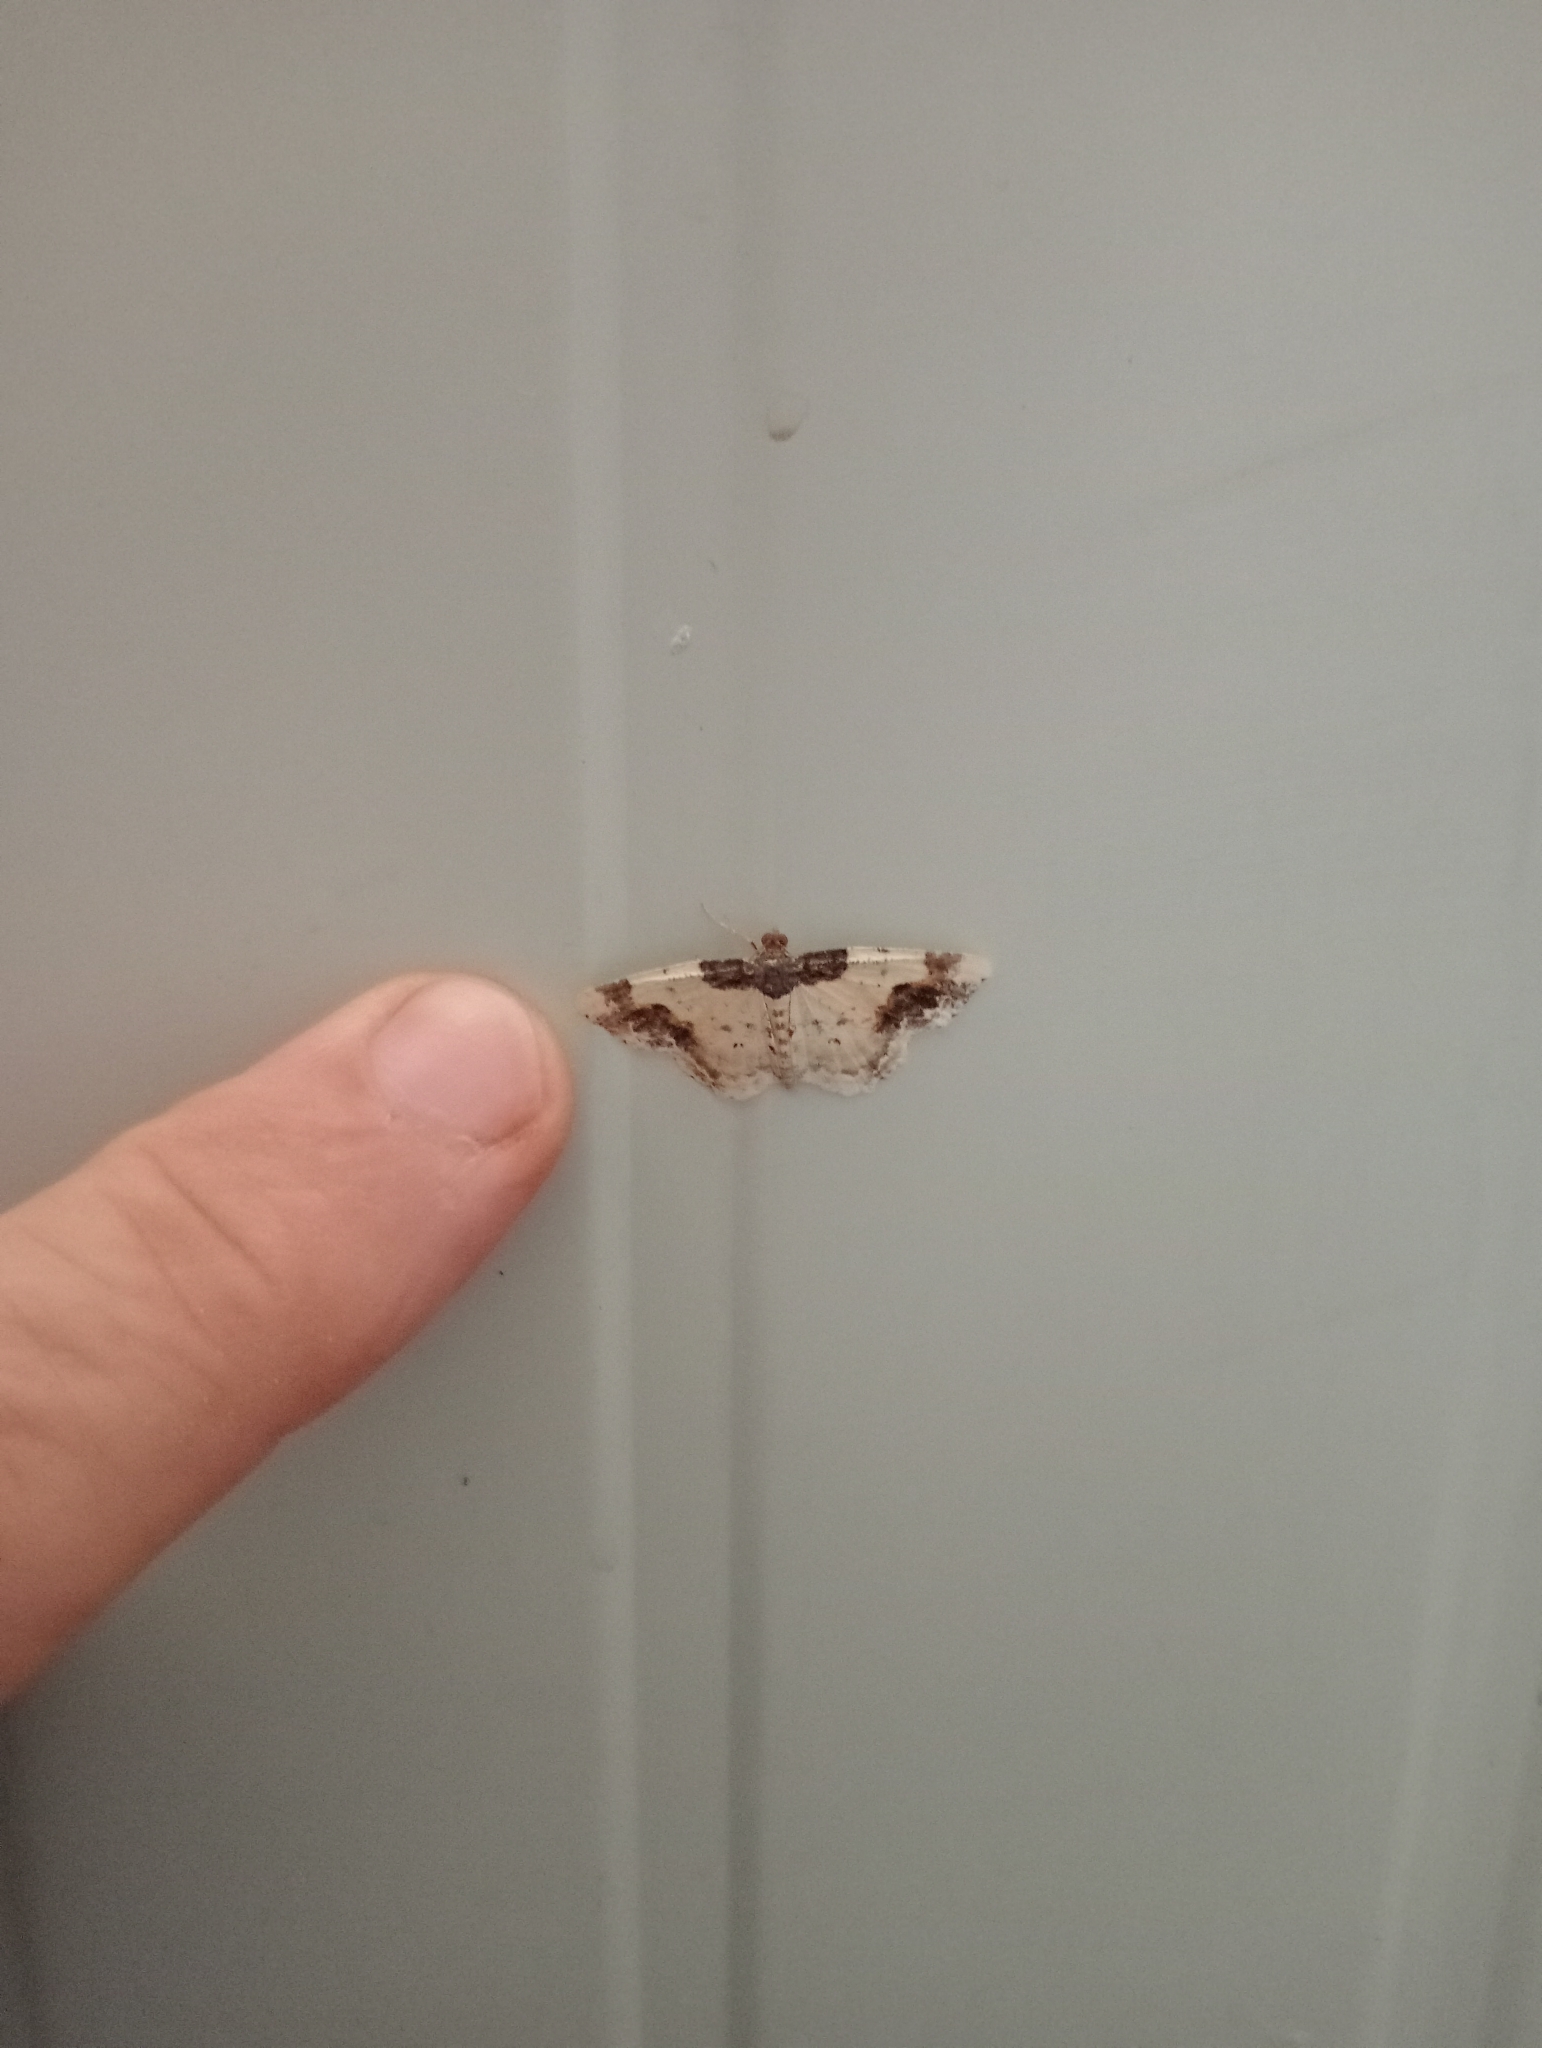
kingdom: Animalia
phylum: Arthropoda
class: Insecta
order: Lepidoptera
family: Geometridae
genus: Ligdia
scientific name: Ligdia adustata
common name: Scorched carpet
